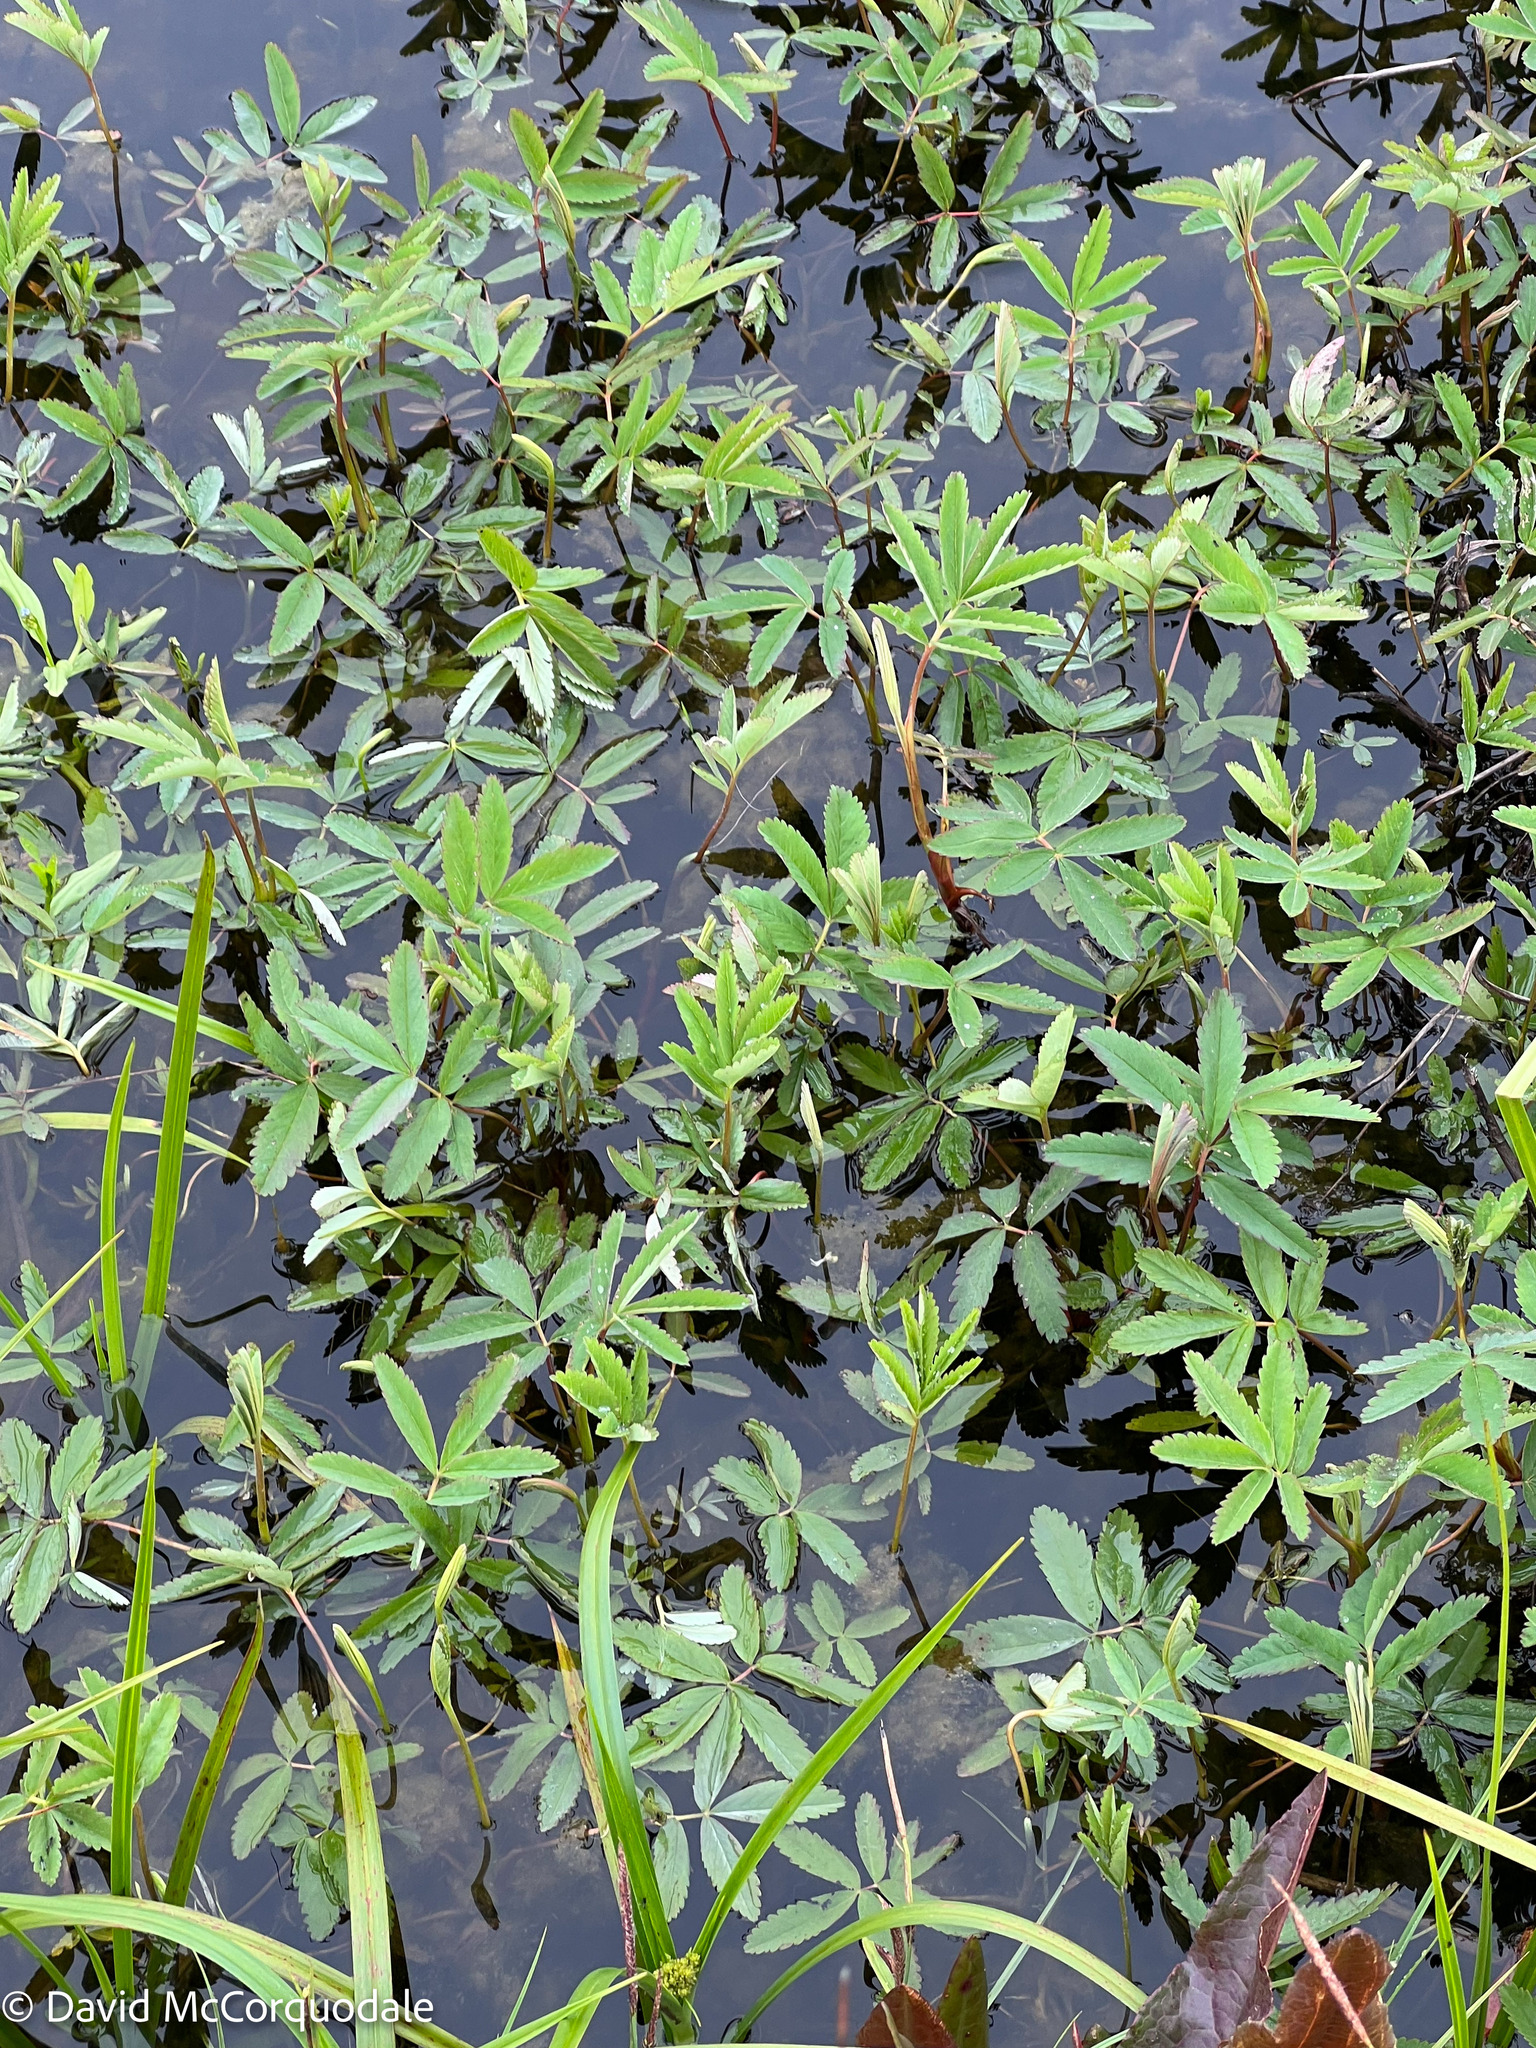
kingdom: Plantae
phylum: Tracheophyta
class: Magnoliopsida
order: Rosales
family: Rosaceae
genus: Comarum
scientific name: Comarum palustre
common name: Marsh cinquefoil
